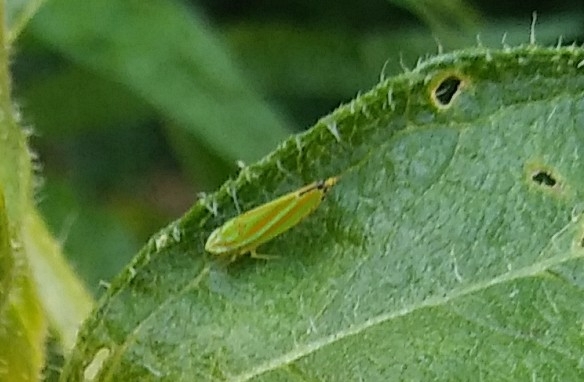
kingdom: Animalia
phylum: Arthropoda
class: Insecta
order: Hemiptera
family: Cicadellidae
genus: Graphocephala
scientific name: Graphocephala versuta
